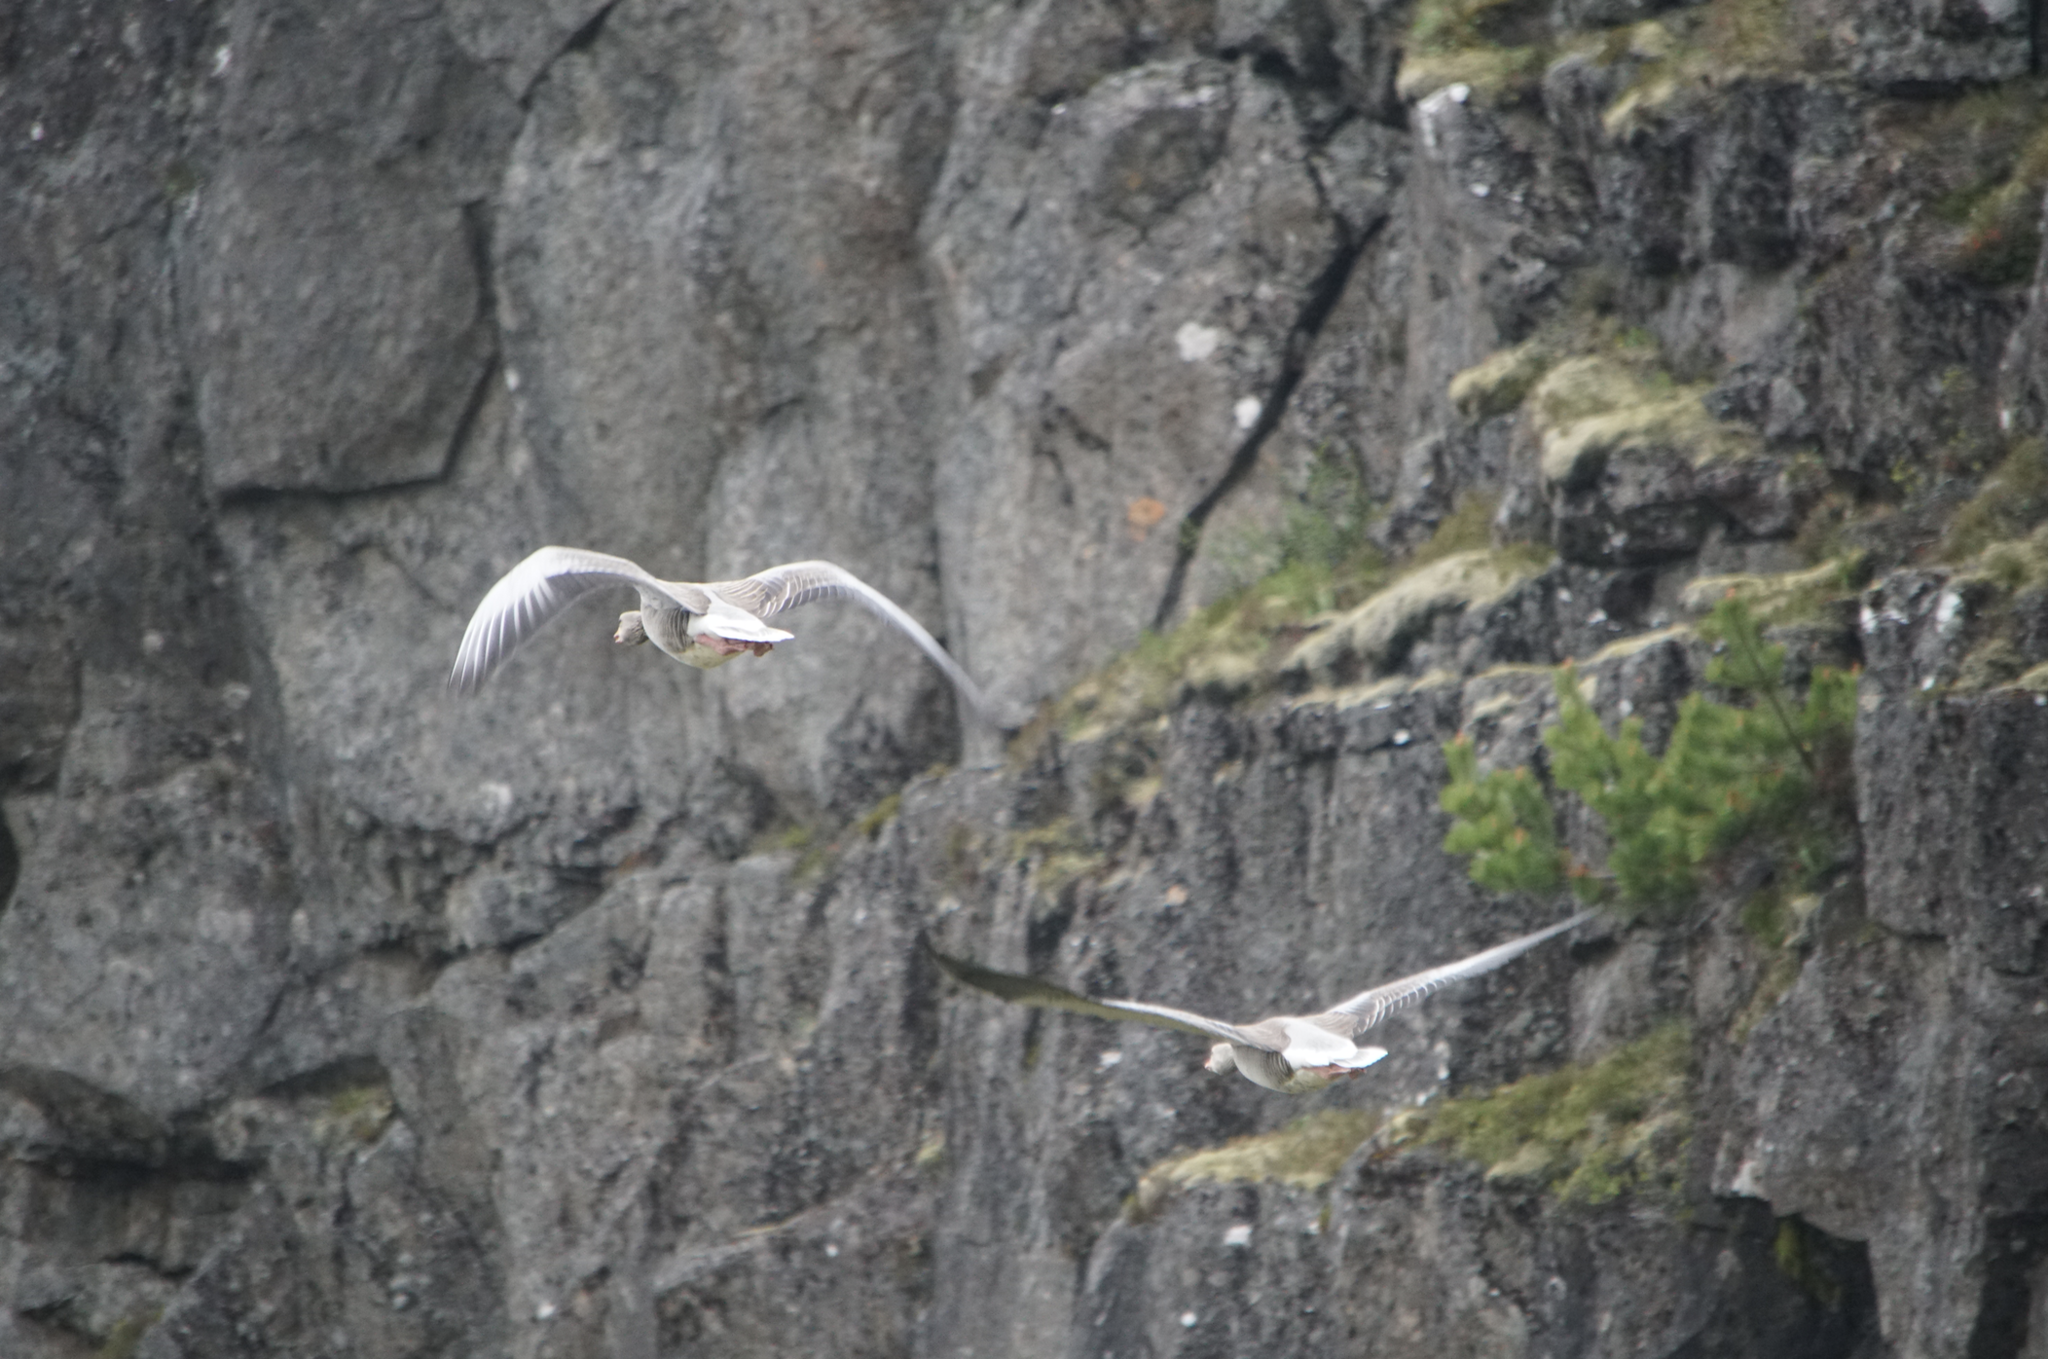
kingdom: Animalia
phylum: Chordata
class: Aves
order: Anseriformes
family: Anatidae
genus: Anser
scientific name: Anser anser
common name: Greylag goose
